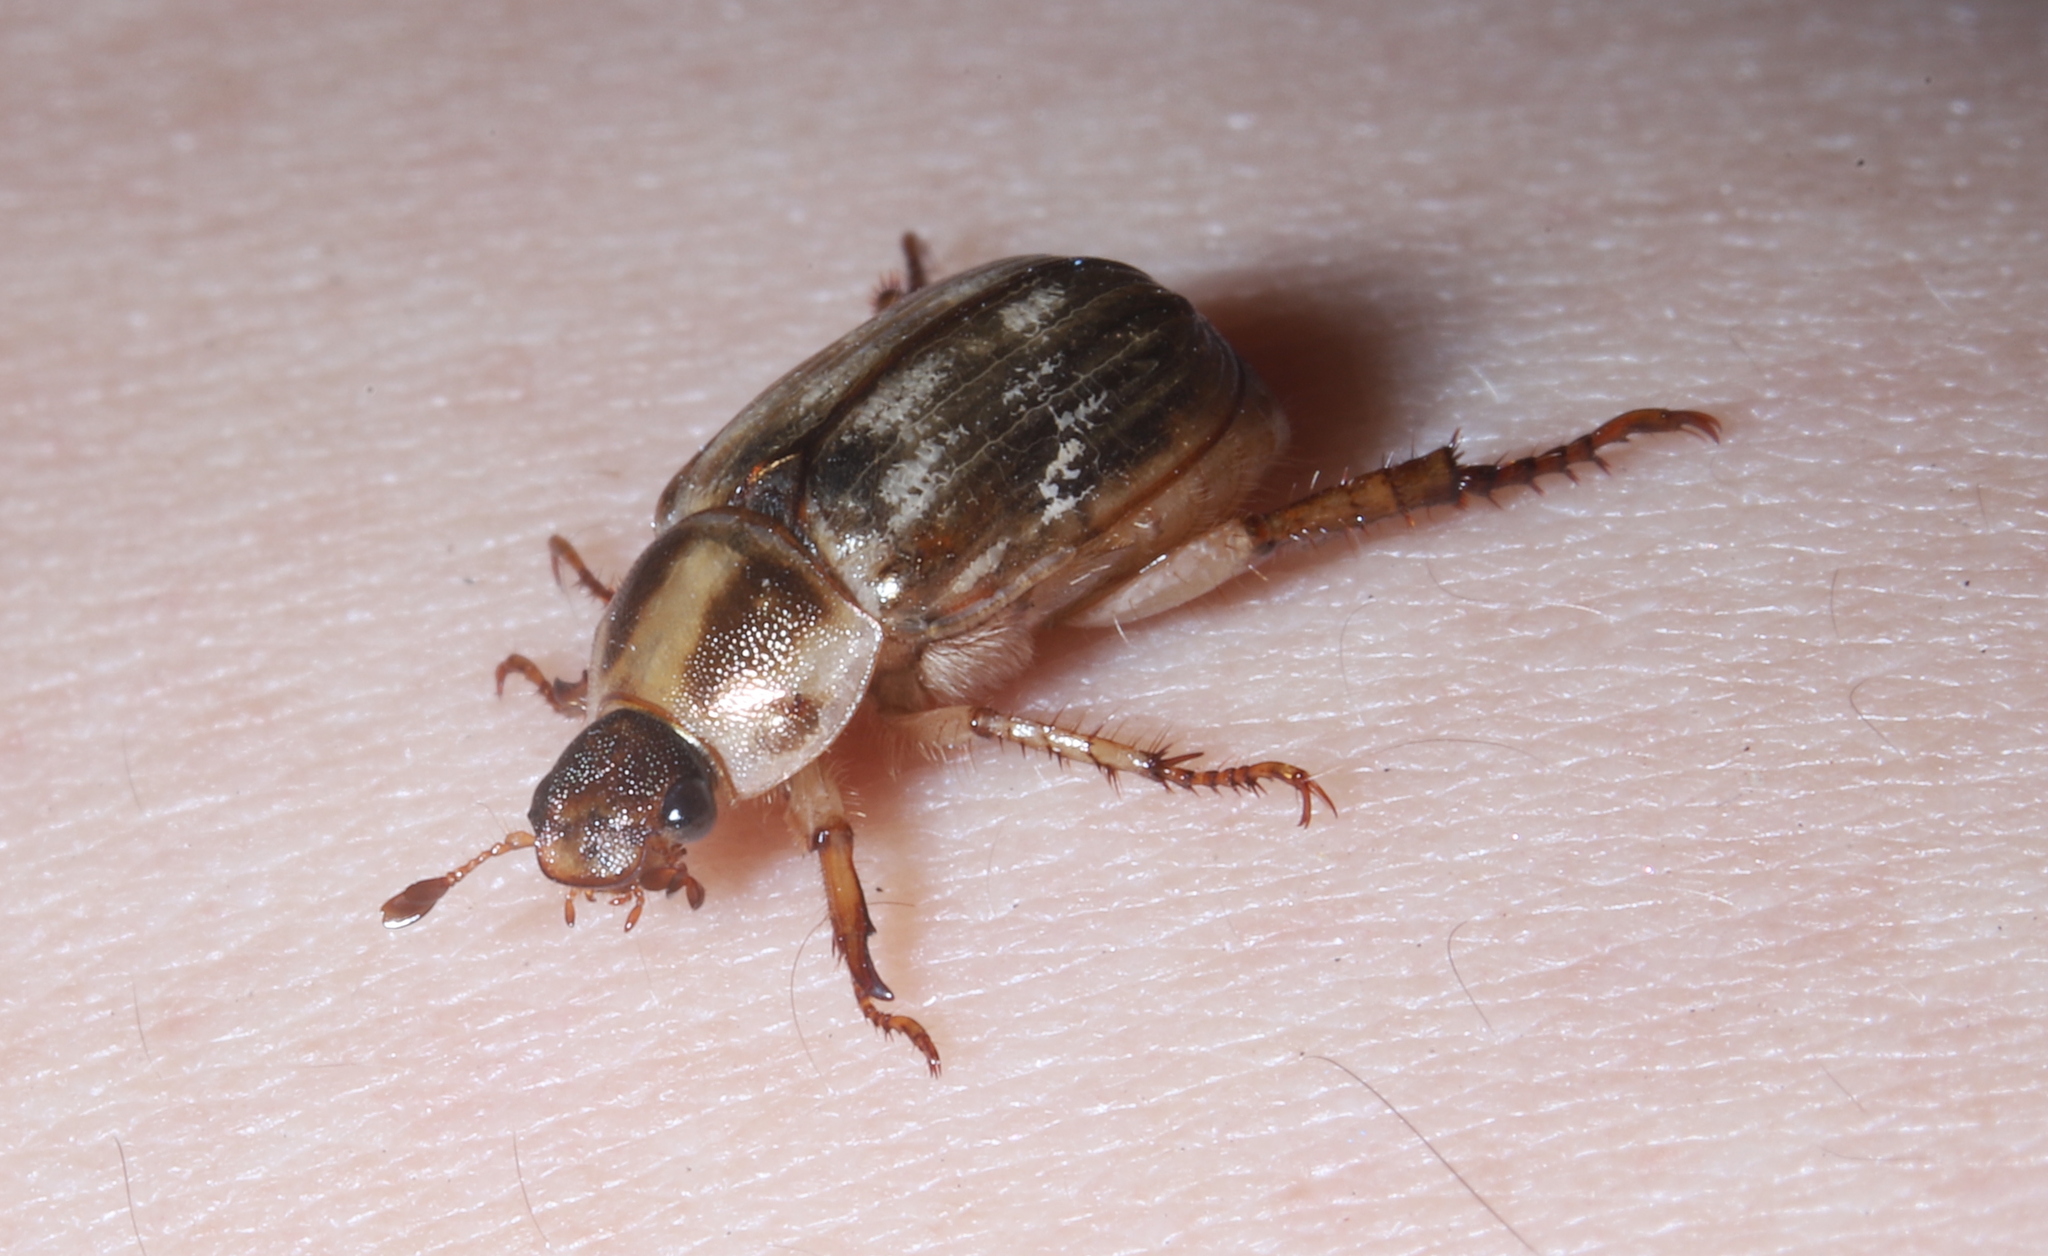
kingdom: Animalia
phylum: Arthropoda
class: Insecta
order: Coleoptera
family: Scarabaeidae
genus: Exomala
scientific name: Exomala orientalis
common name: Oriental beetle
